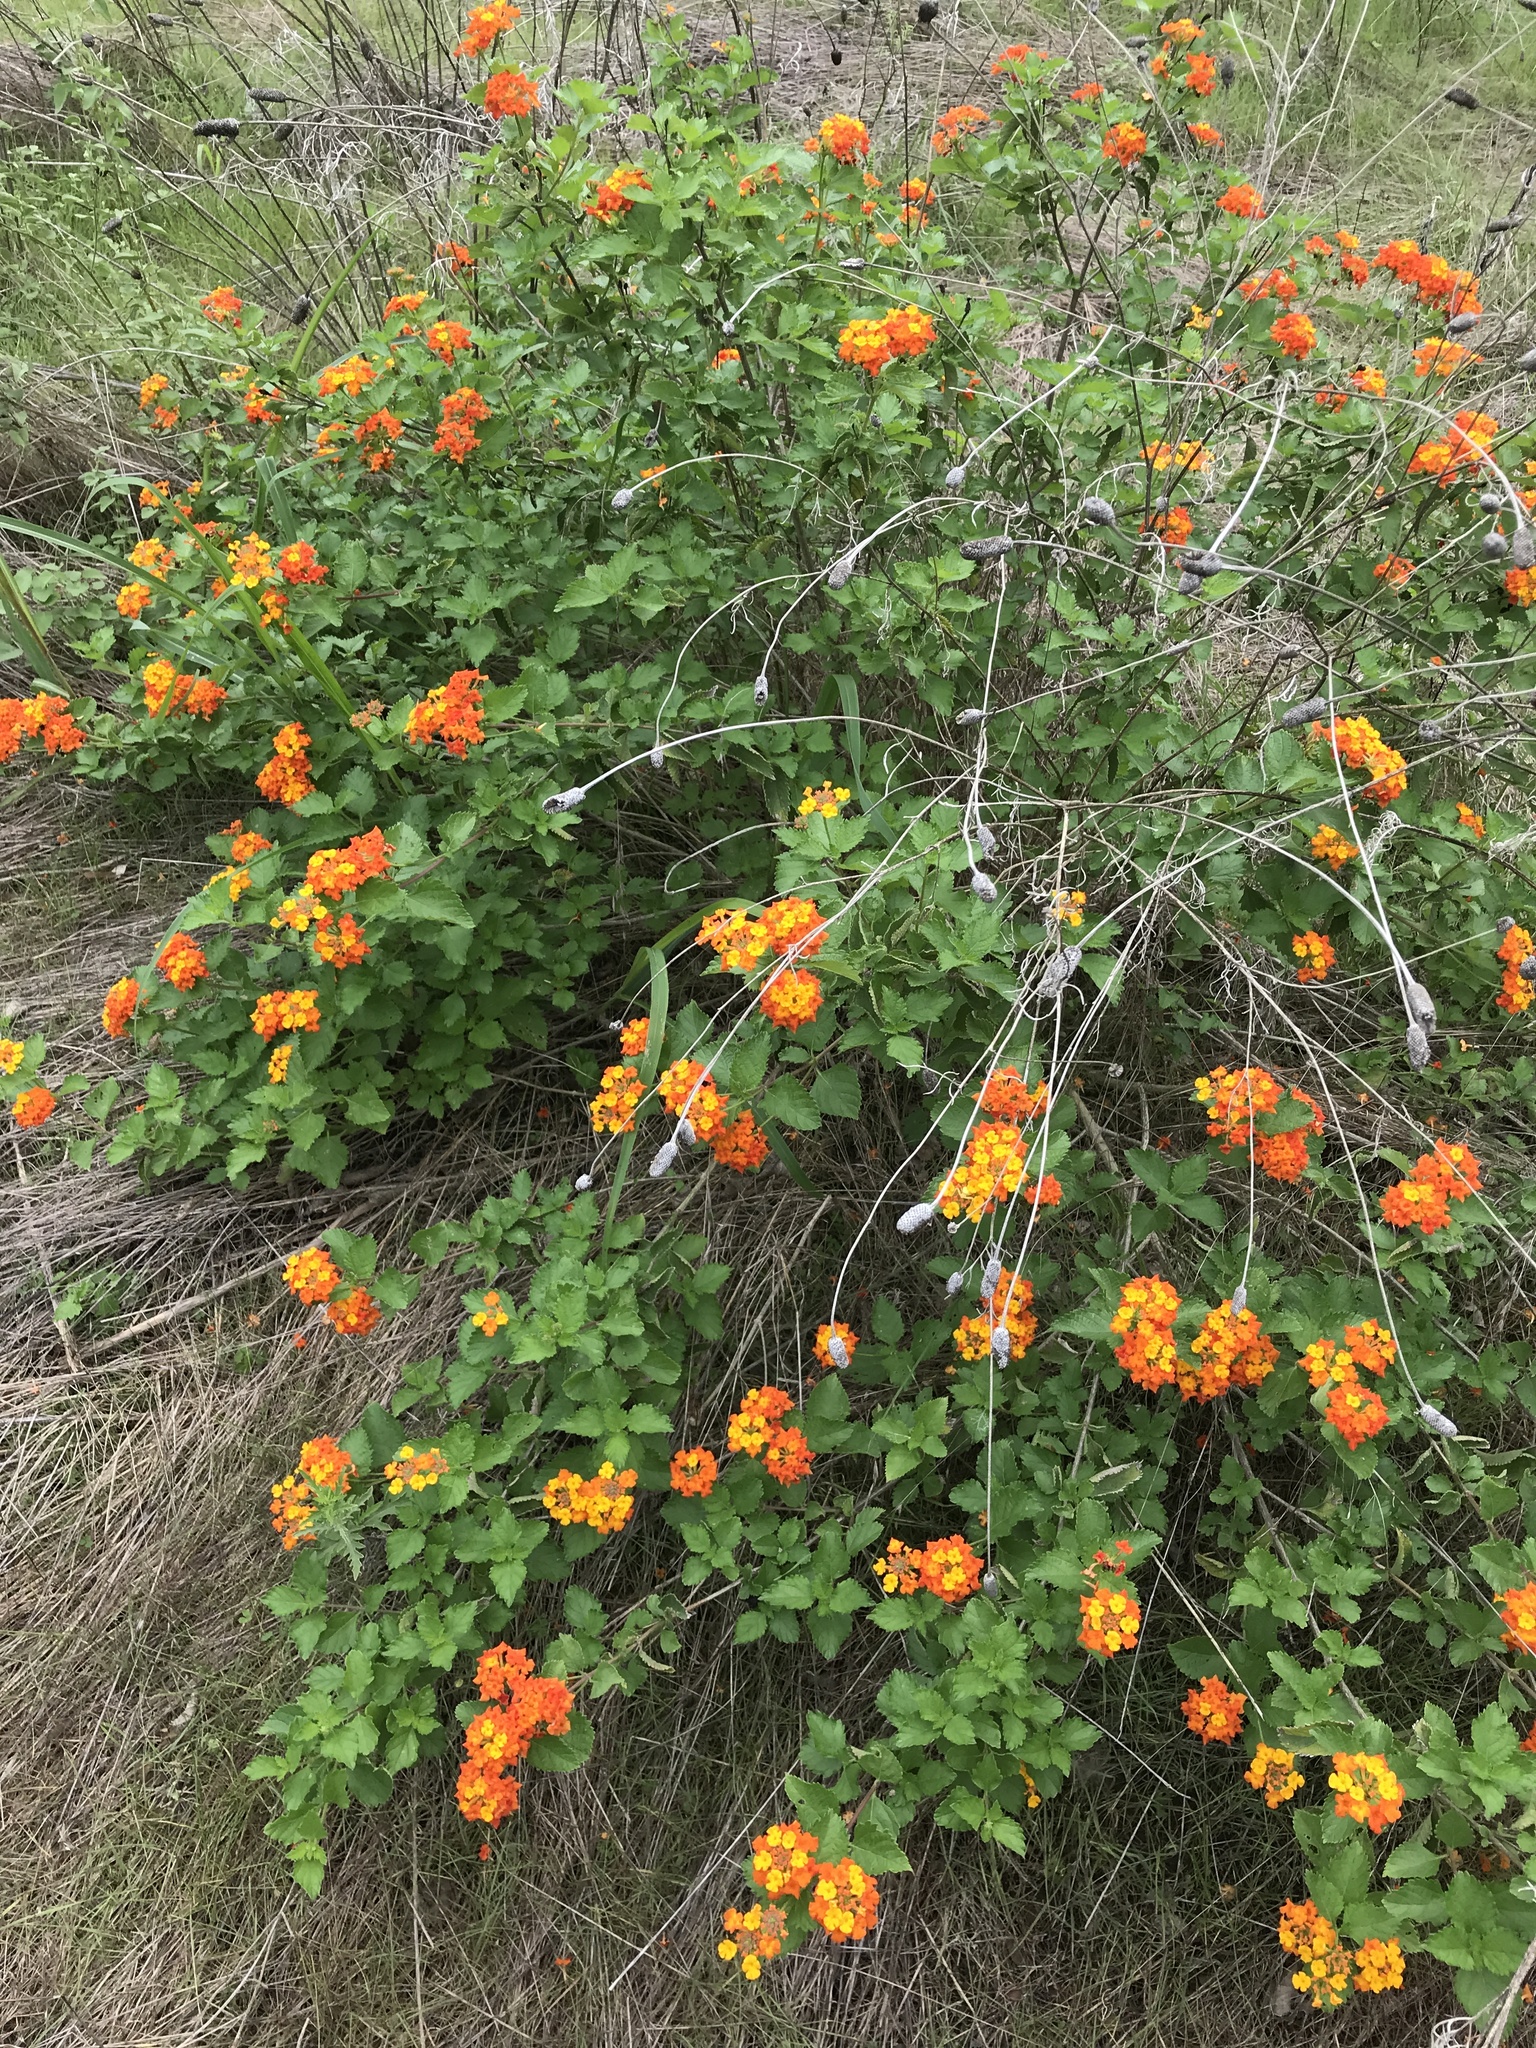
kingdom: Plantae
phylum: Tracheophyta
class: Magnoliopsida
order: Lamiales
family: Verbenaceae
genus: Lantana
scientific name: Lantana urticoides
